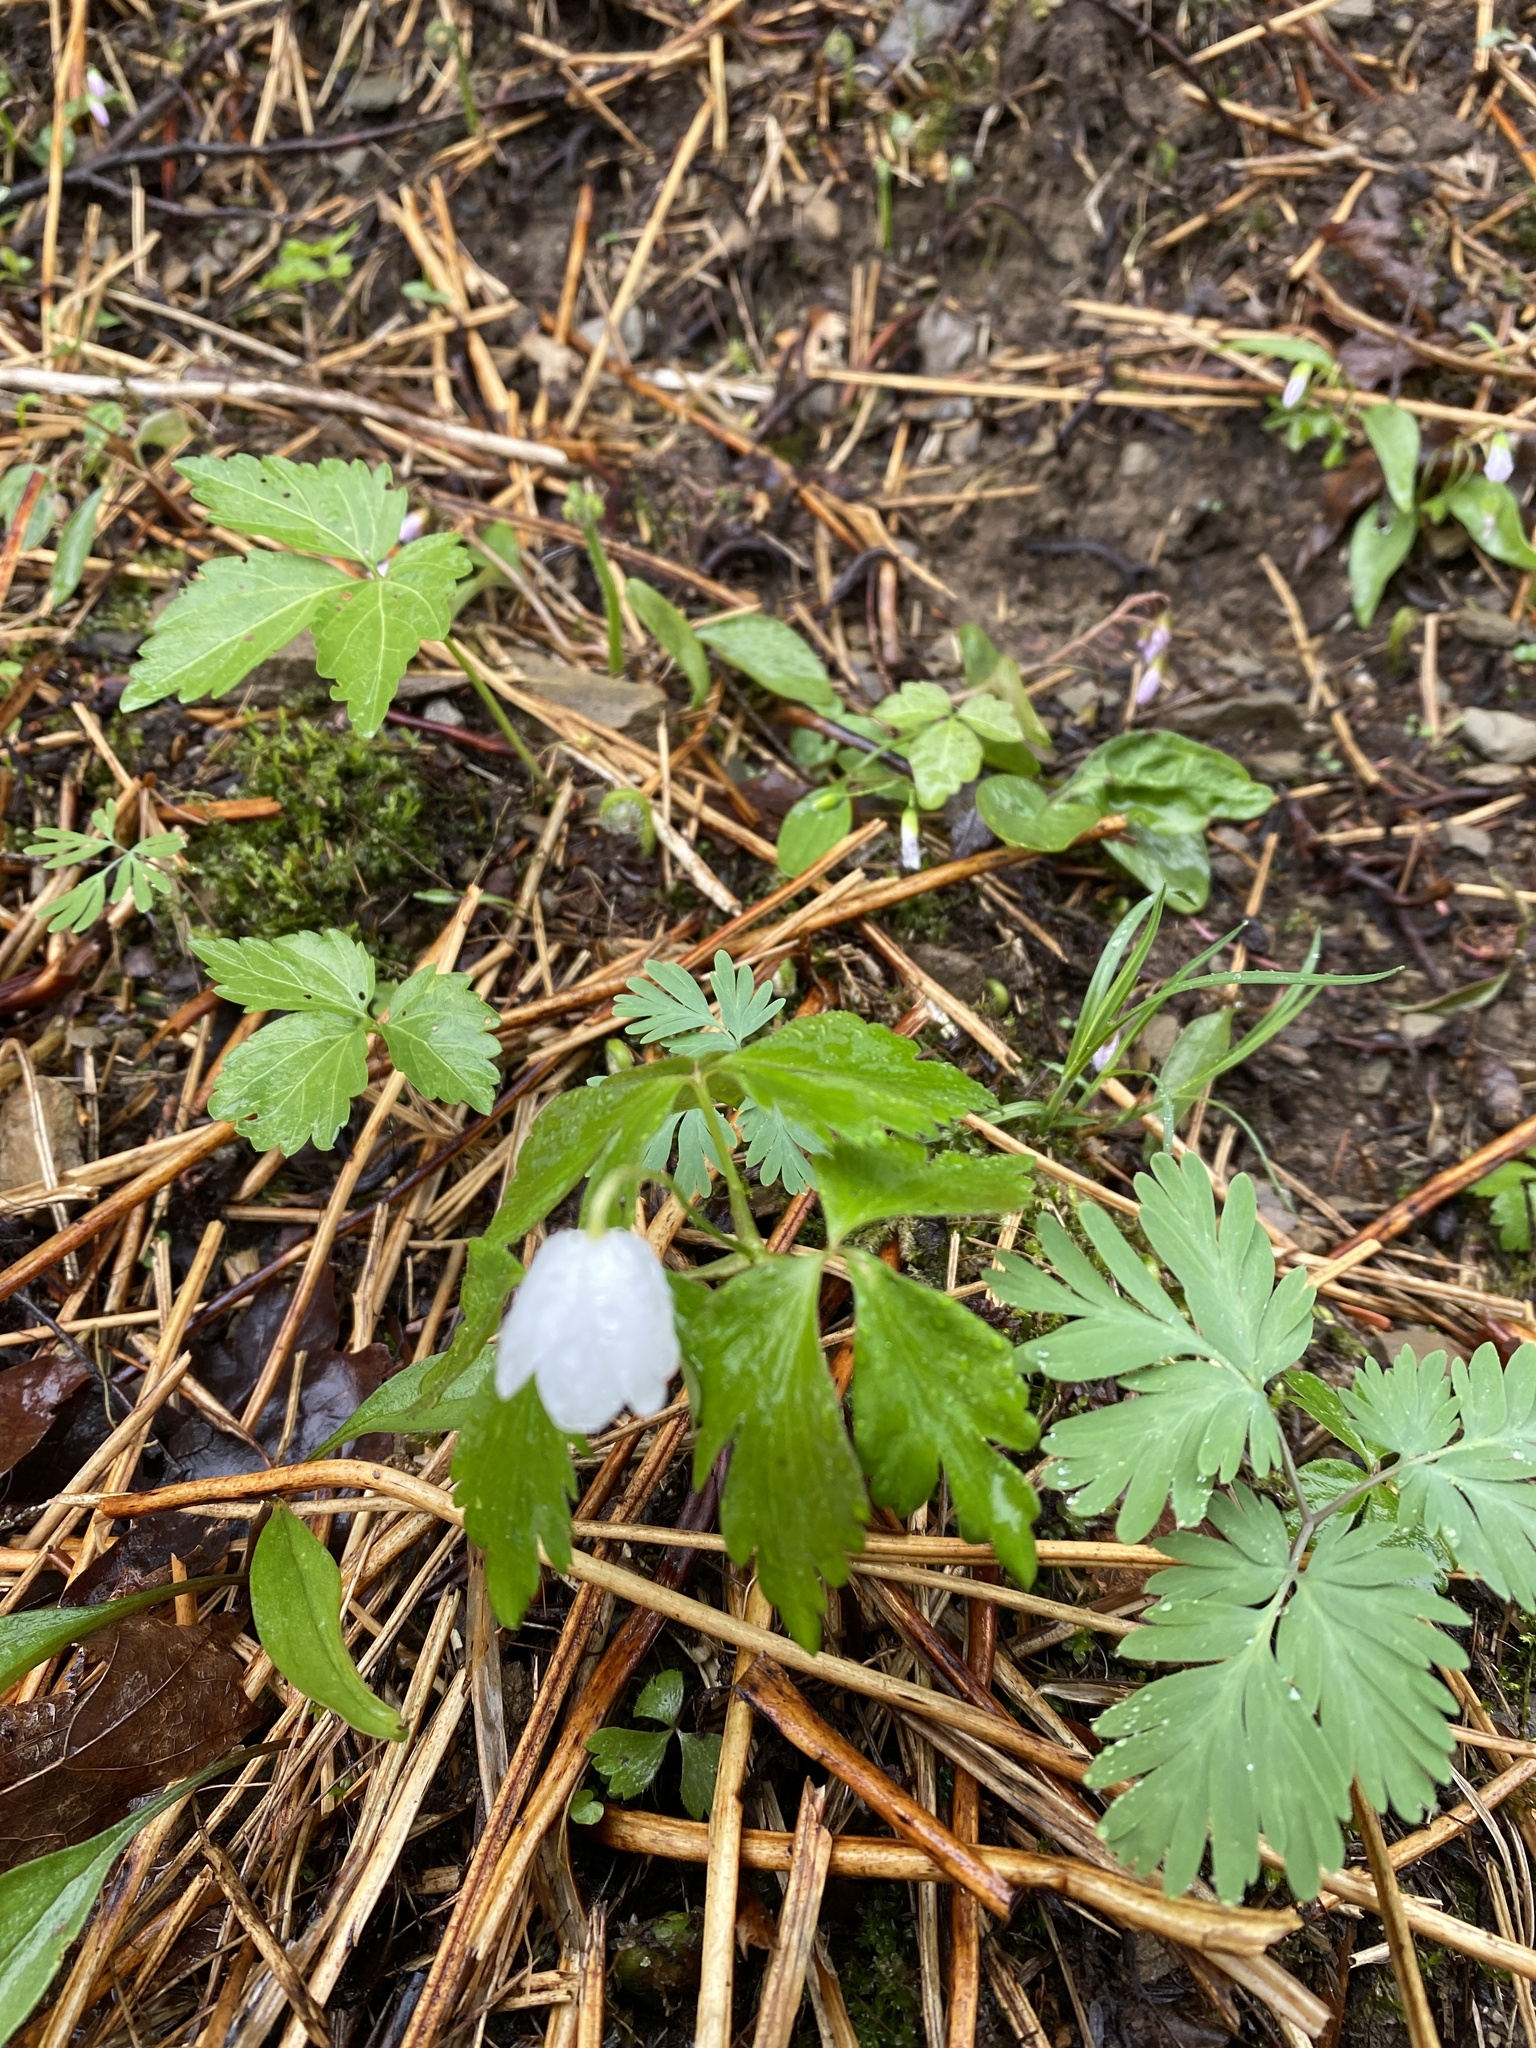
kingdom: Plantae
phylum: Tracheophyta
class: Magnoliopsida
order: Ranunculales
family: Ranunculaceae
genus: Anemone
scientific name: Anemone quinquefolia
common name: Wood anemone
